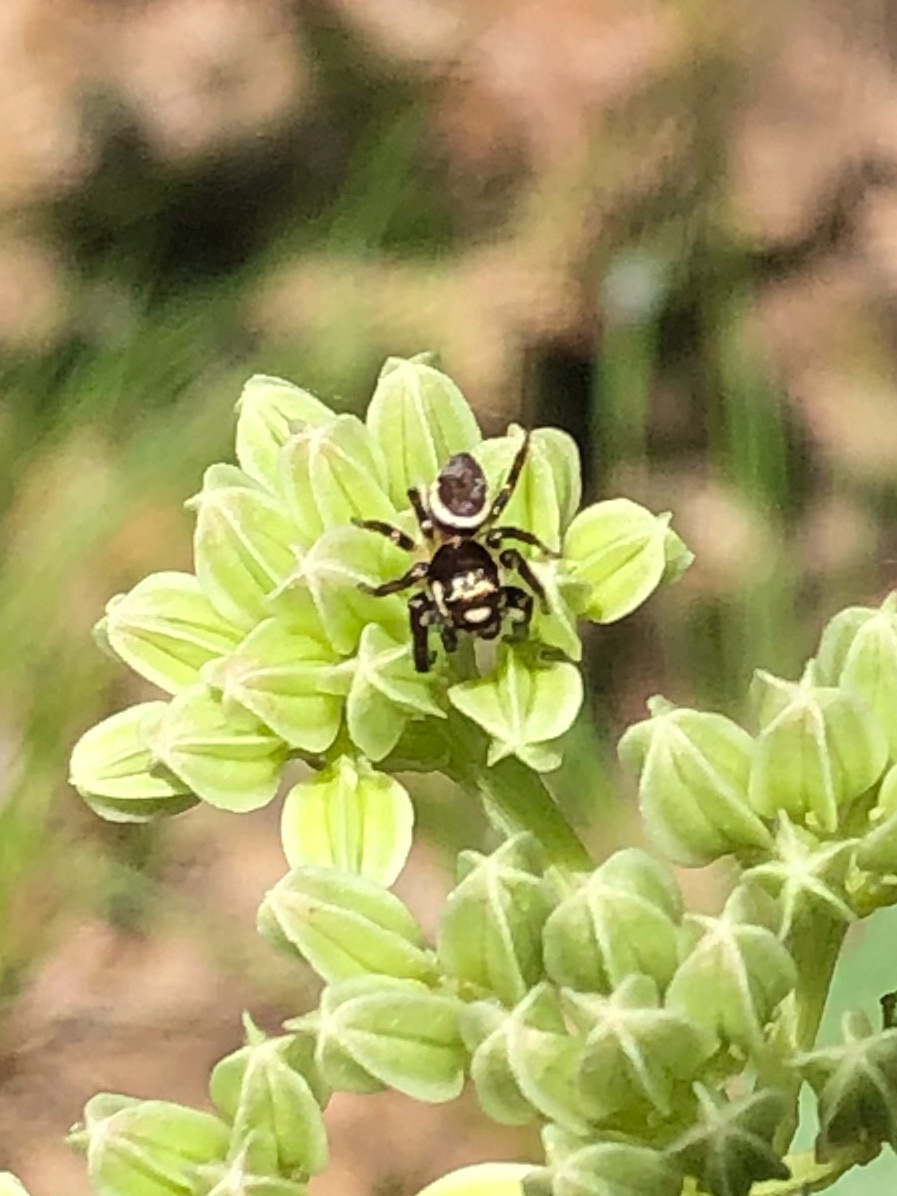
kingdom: Animalia
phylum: Arthropoda
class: Arachnida
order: Araneae
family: Salticidae
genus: Eris
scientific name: Eris militaris
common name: Bronze jumper
